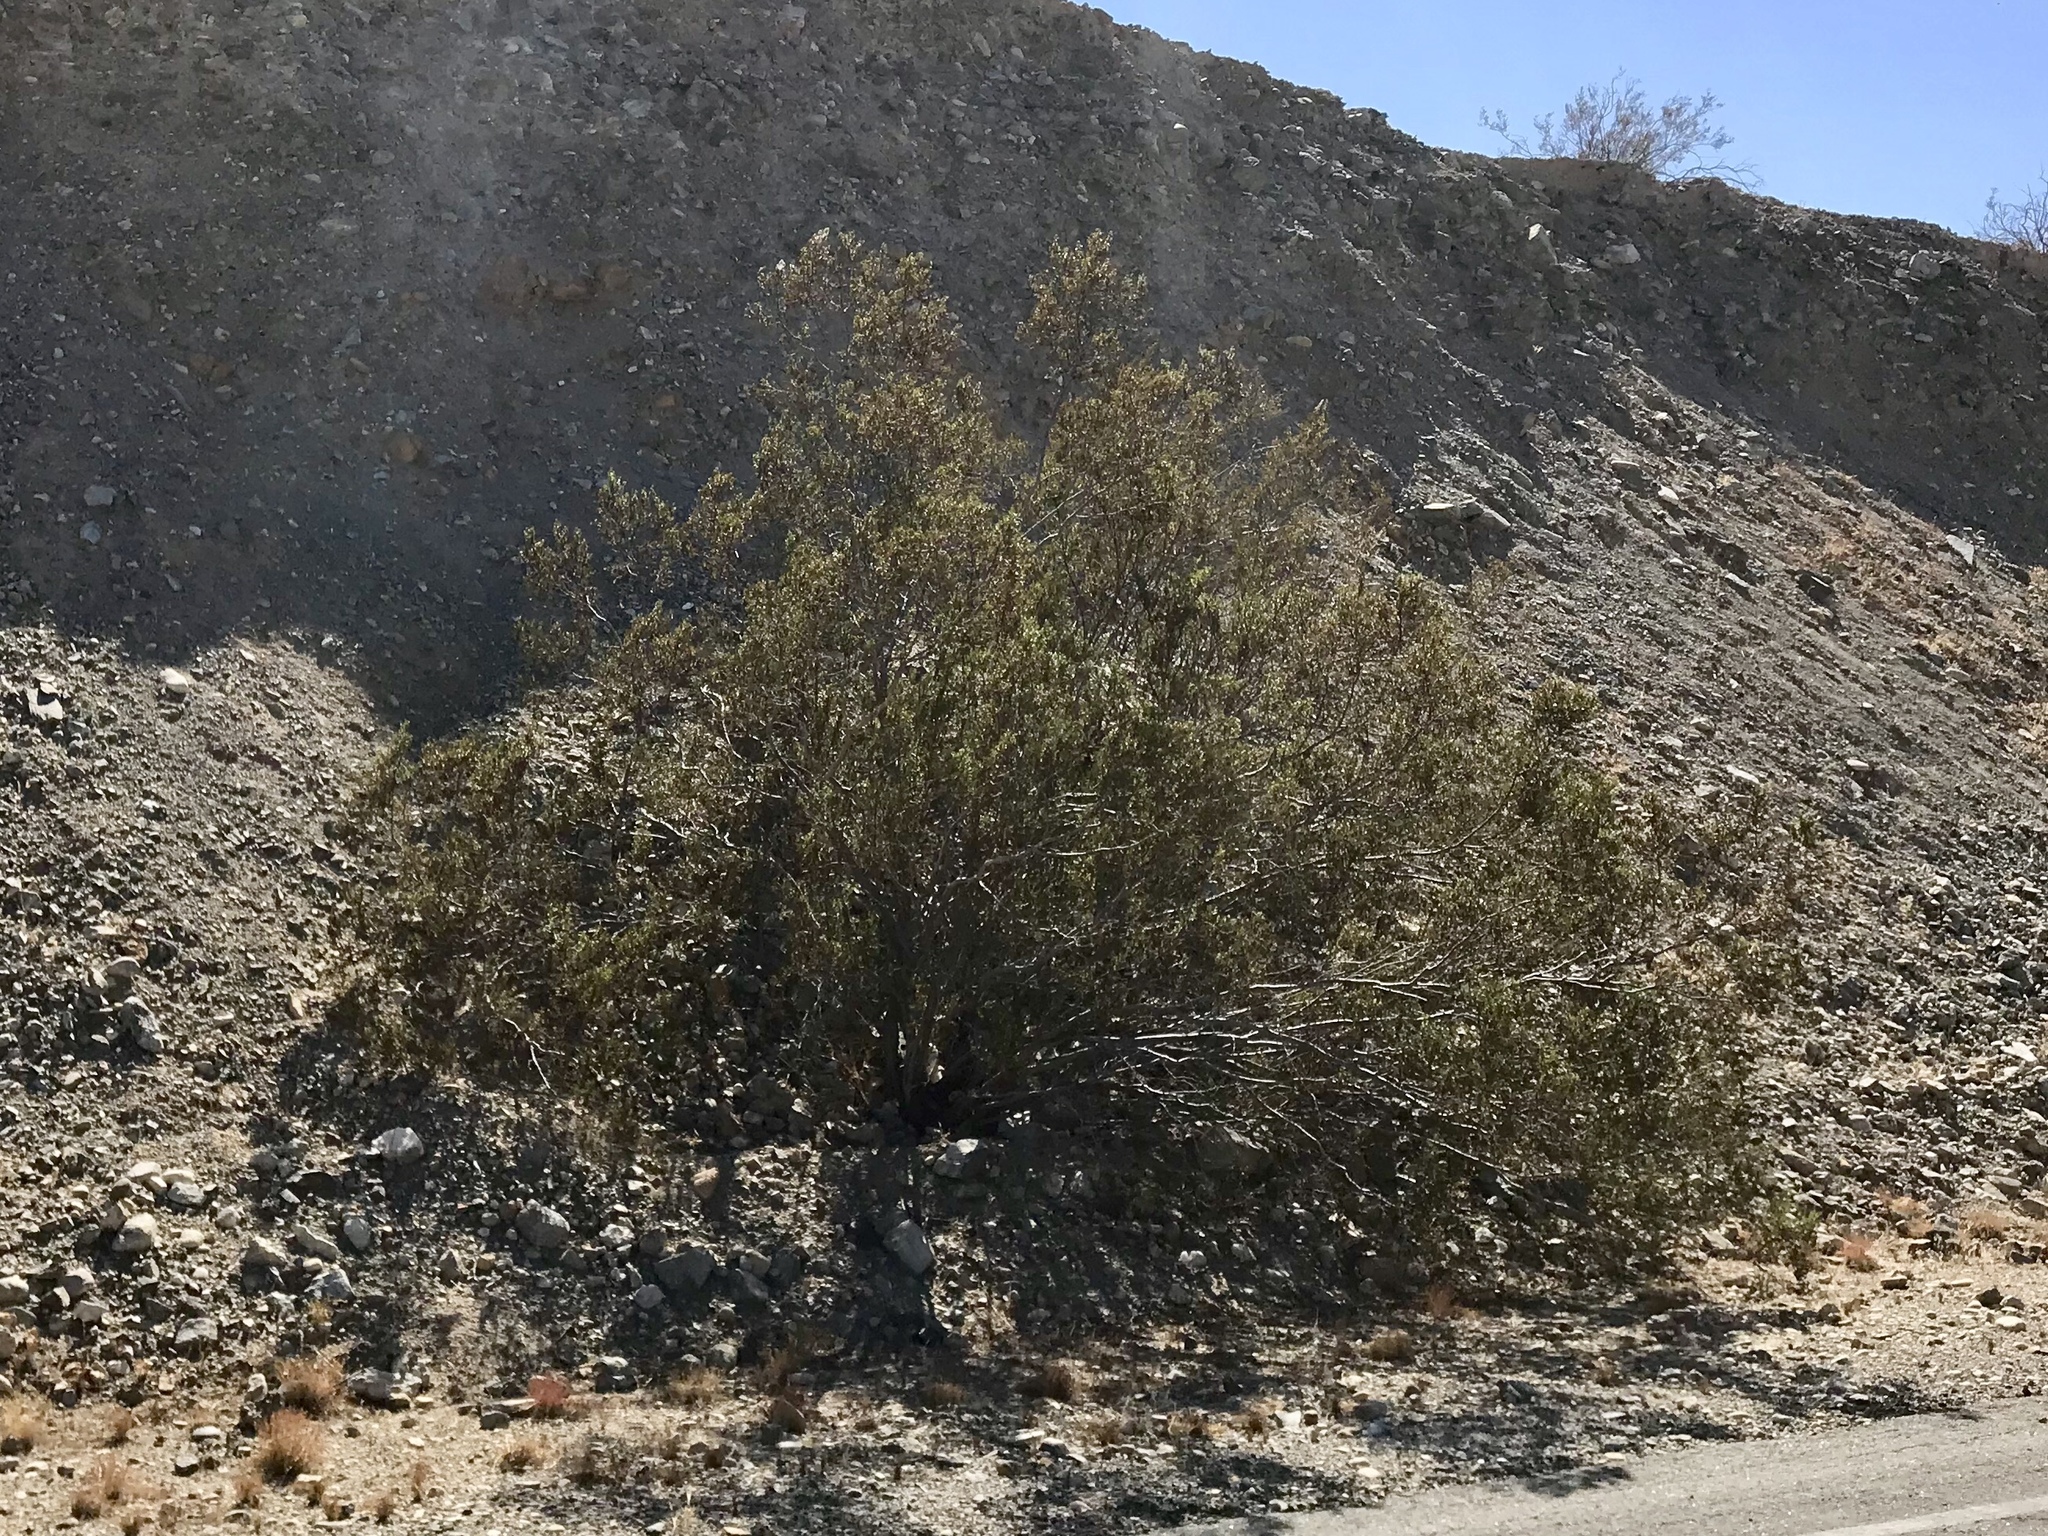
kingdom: Plantae
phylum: Tracheophyta
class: Magnoliopsida
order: Zygophyllales
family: Zygophyllaceae
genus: Larrea
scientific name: Larrea tridentata
